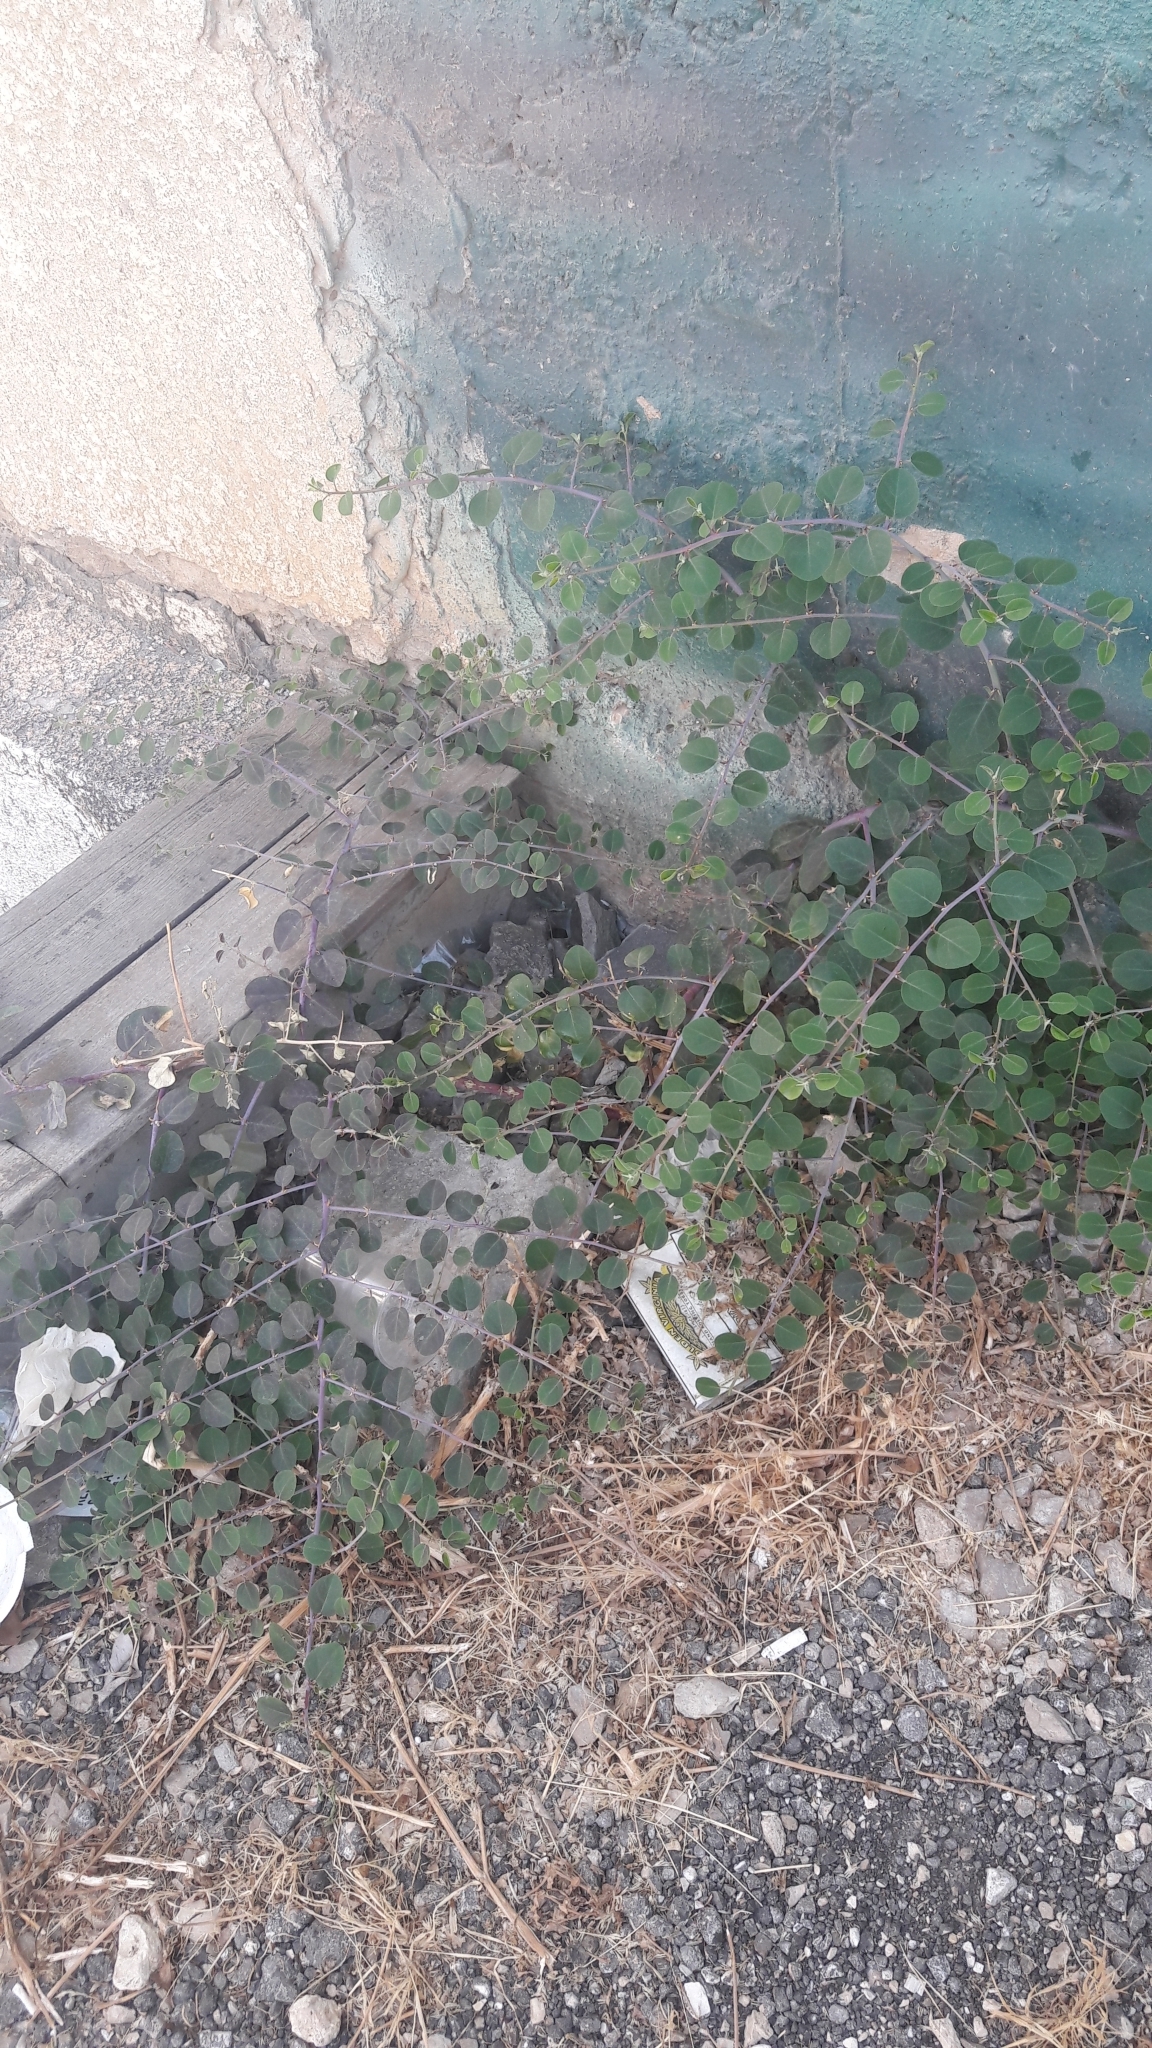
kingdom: Plantae
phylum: Tracheophyta
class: Magnoliopsida
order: Brassicales
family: Capparaceae
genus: Capparis
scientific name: Capparis spinosa
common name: Caper
